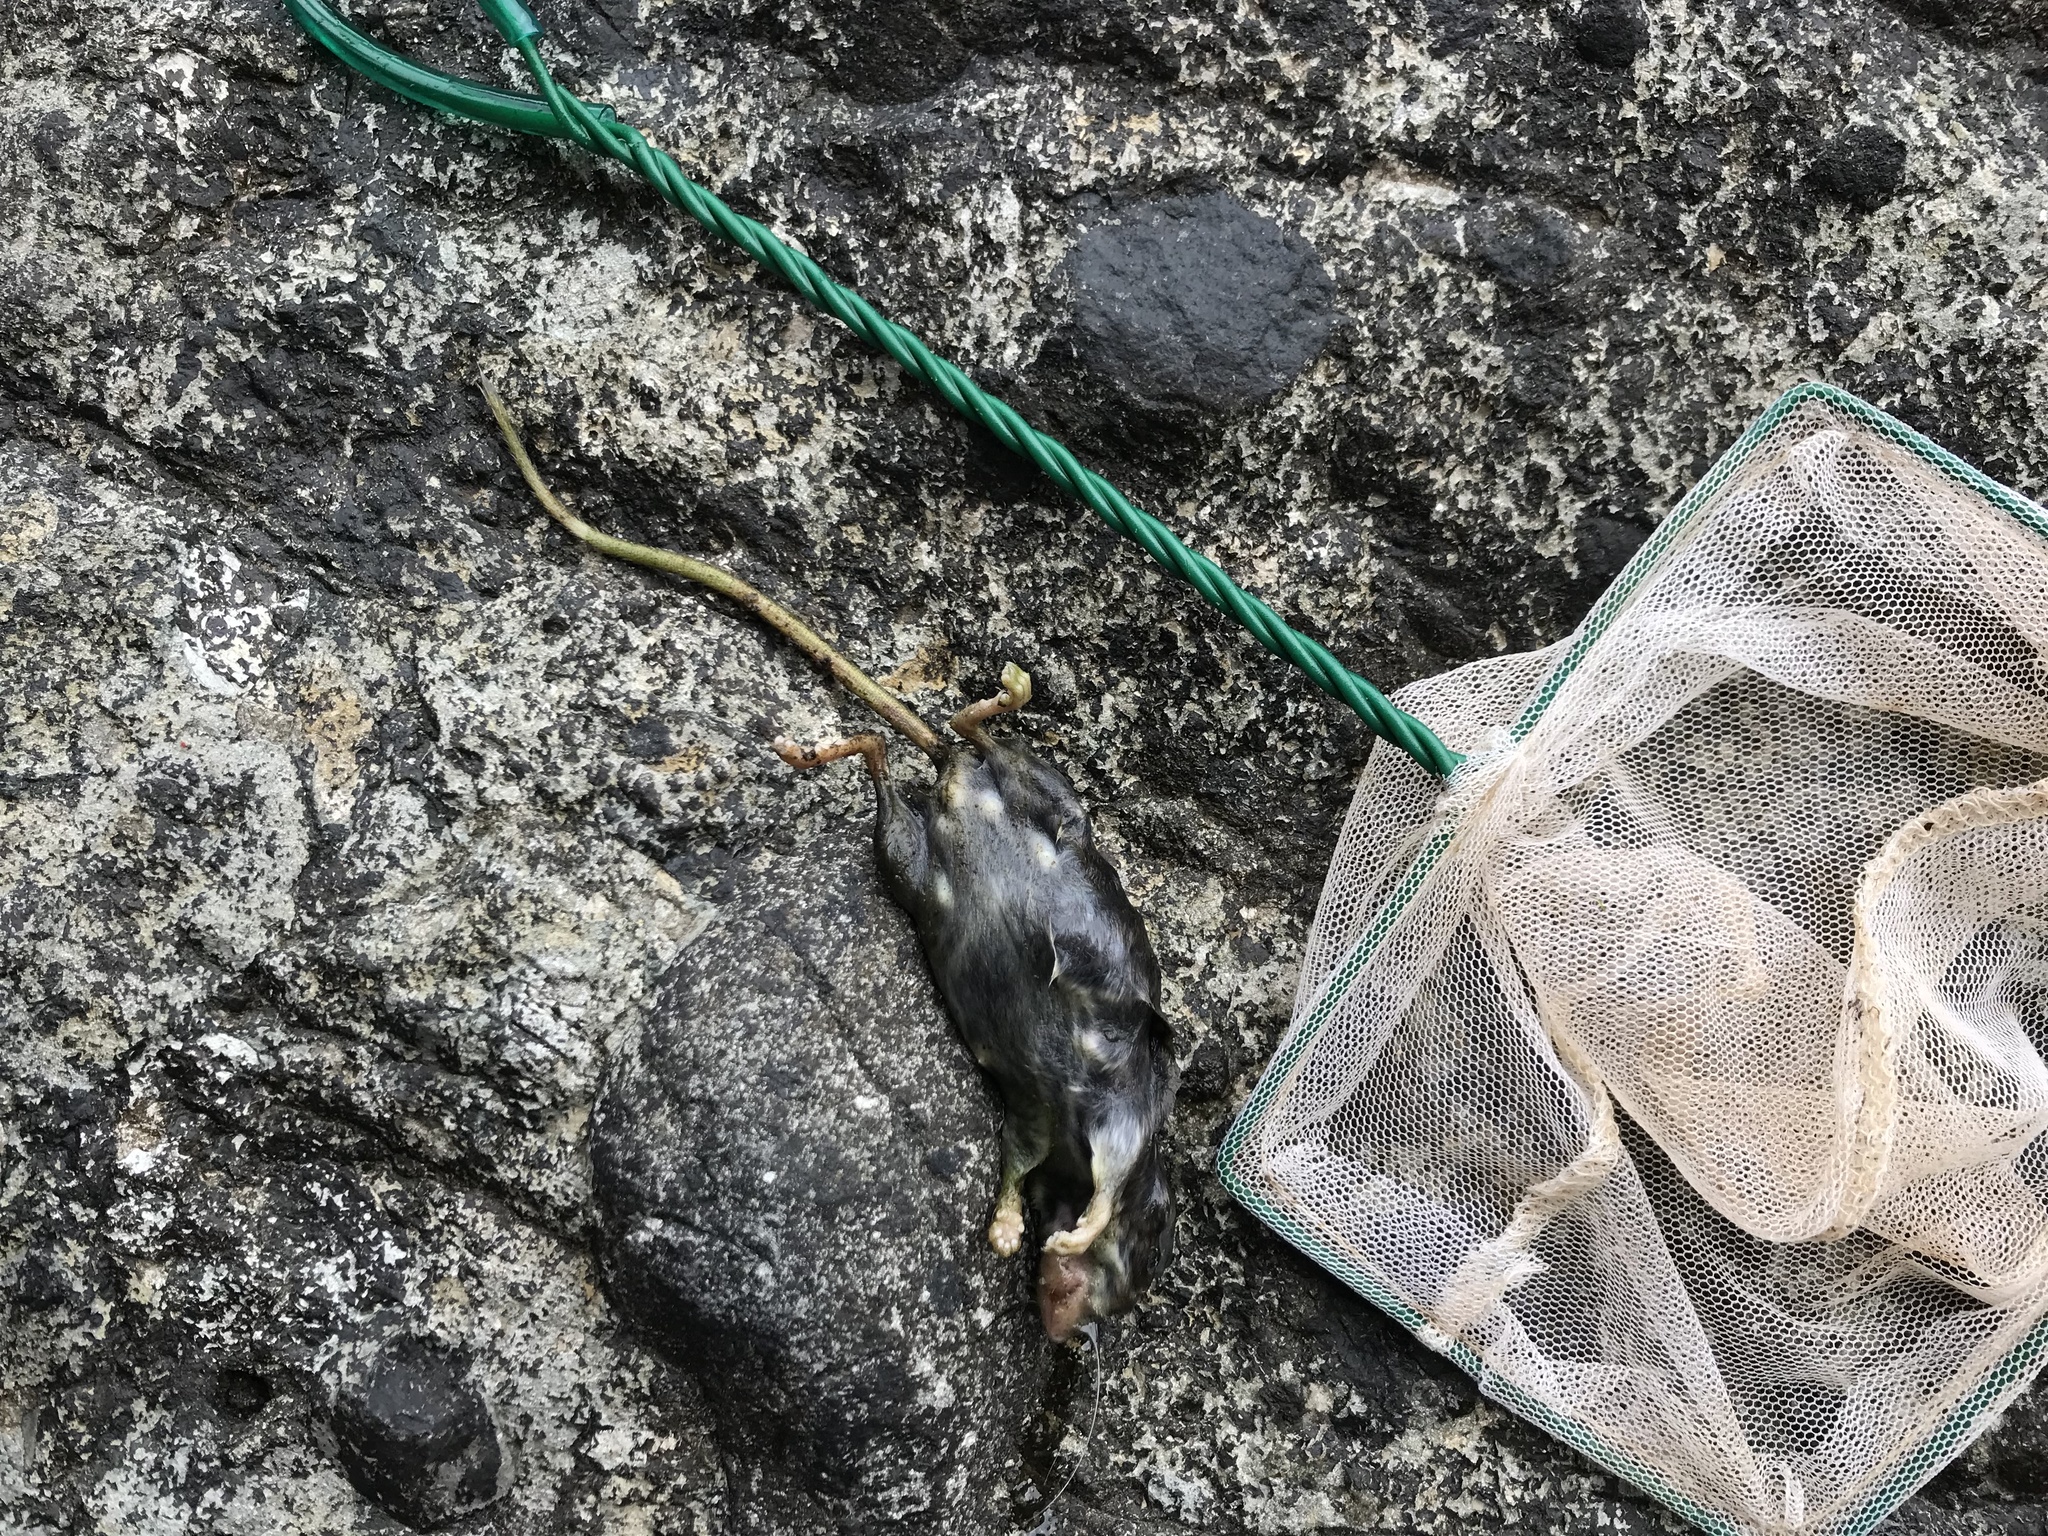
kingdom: Animalia
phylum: Chordata
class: Mammalia
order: Rodentia
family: Muridae
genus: Rattus
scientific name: Rattus rattus
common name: Black rat
